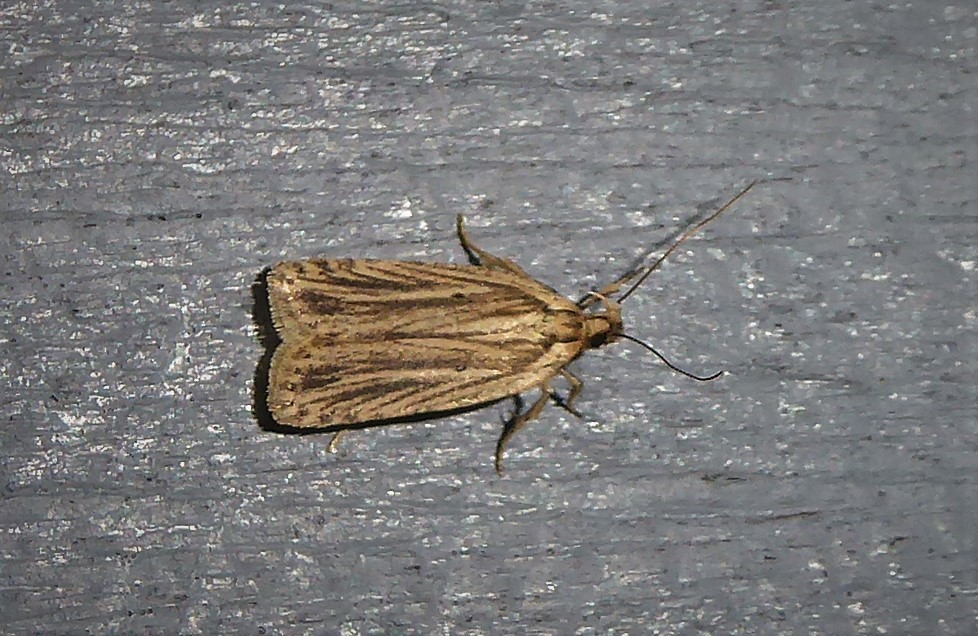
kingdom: Animalia
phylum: Arthropoda
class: Insecta
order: Lepidoptera
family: Depressariidae
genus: Agonopterix
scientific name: Agonopterix
